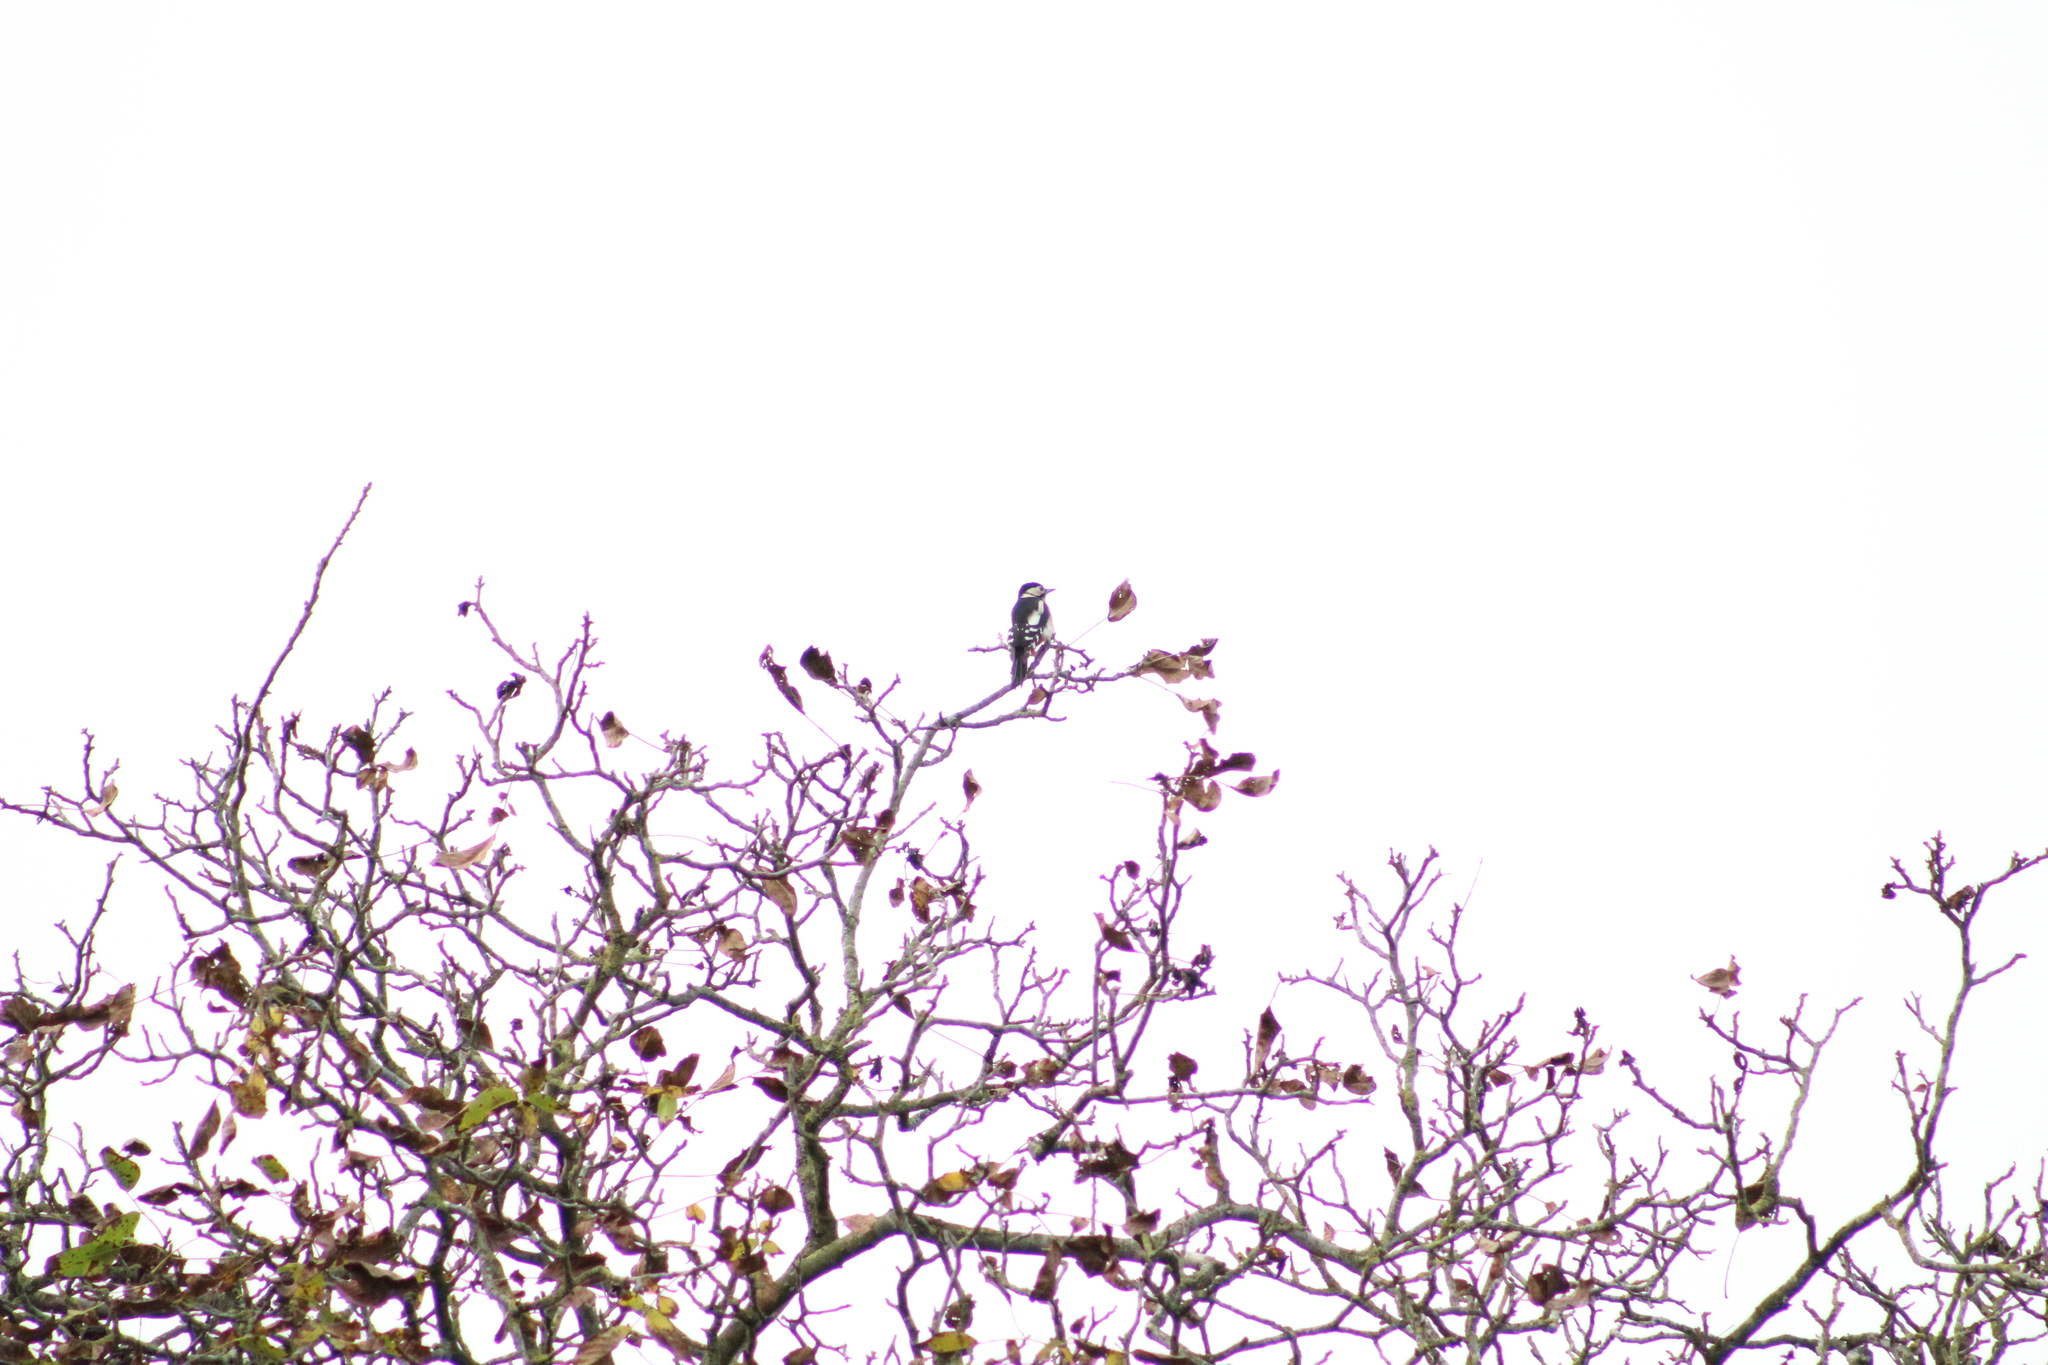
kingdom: Animalia
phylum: Chordata
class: Aves
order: Piciformes
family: Picidae
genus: Dendrocopos
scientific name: Dendrocopos major
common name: Great spotted woodpecker
